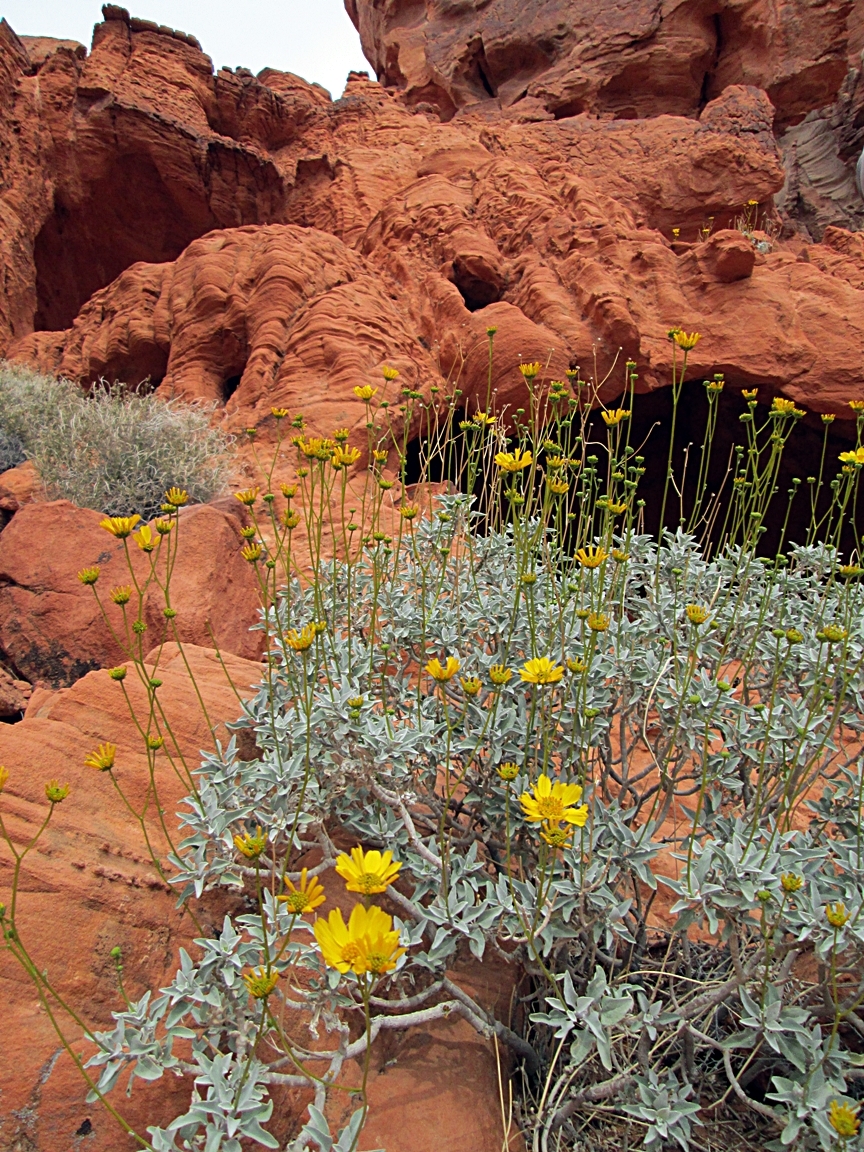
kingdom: Plantae
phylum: Tracheophyta
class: Magnoliopsida
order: Asterales
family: Asteraceae
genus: Encelia
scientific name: Encelia farinosa
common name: Brittlebush
